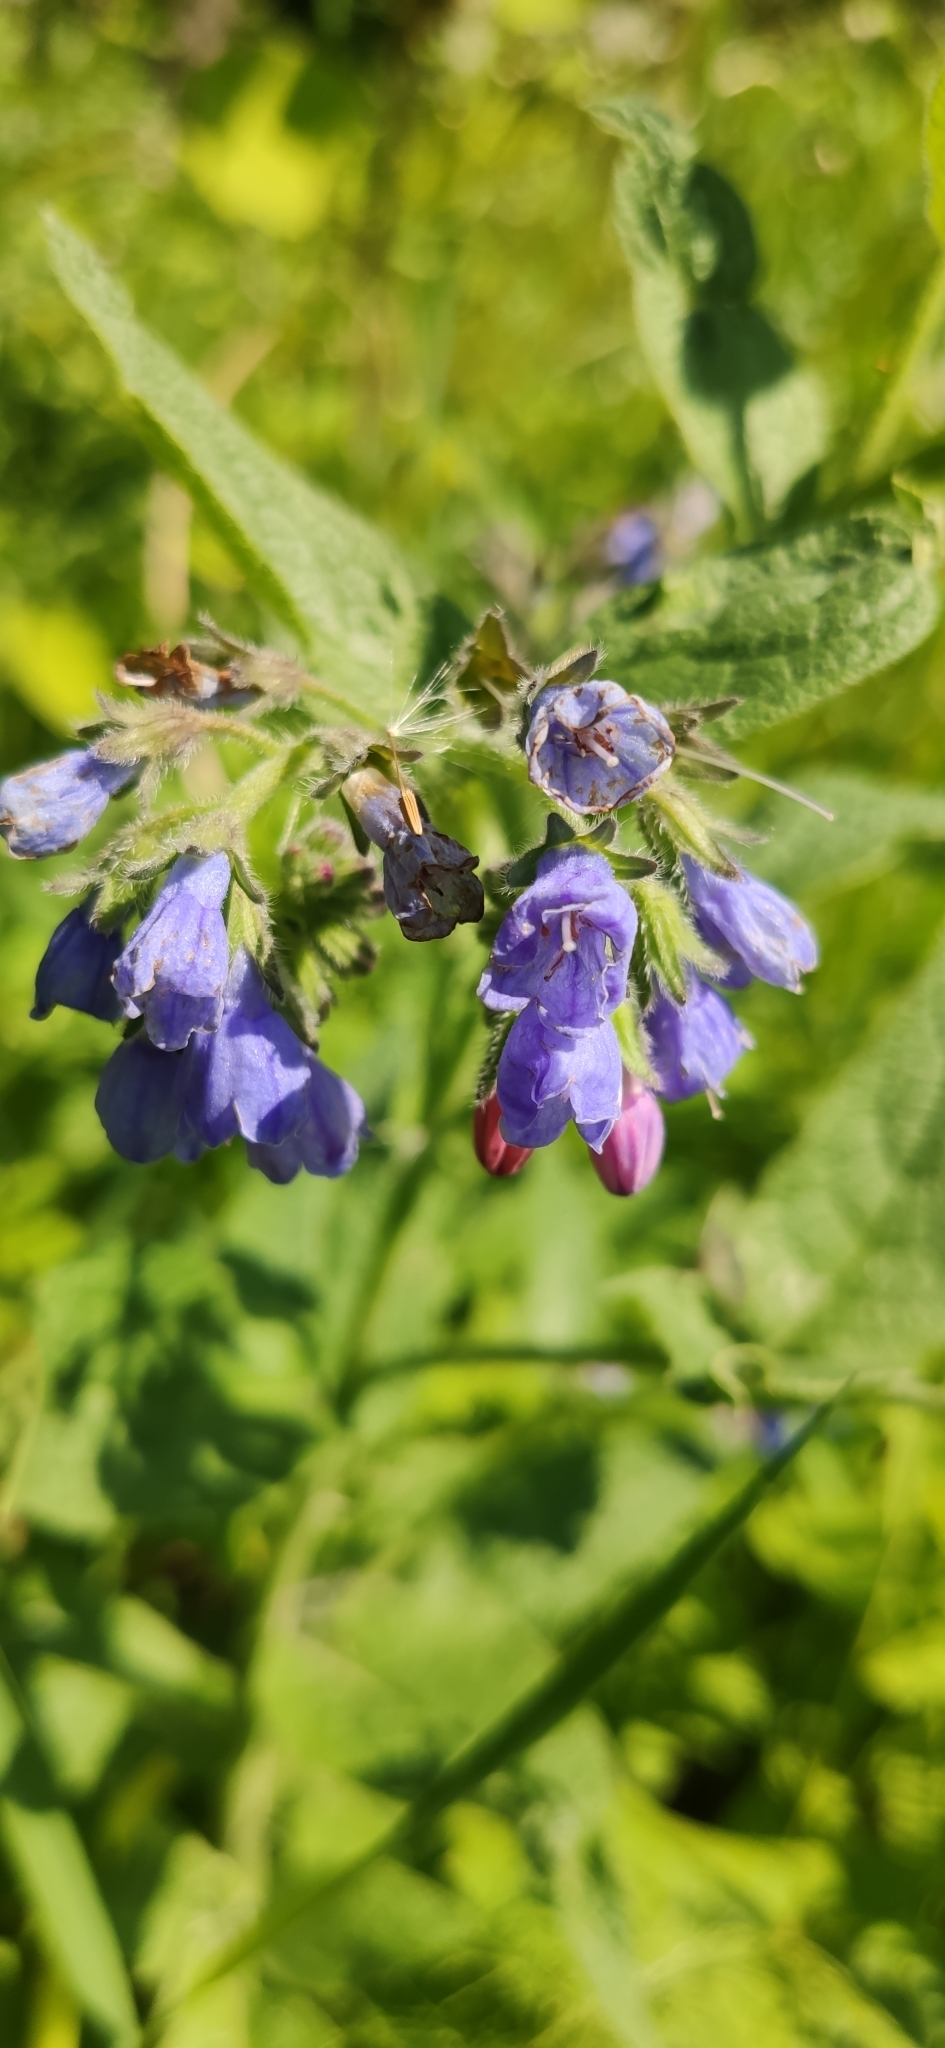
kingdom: Plantae
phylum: Tracheophyta
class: Magnoliopsida
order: Boraginales
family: Boraginaceae
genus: Symphytum
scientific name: Symphytum caucasicum
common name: Caucasian comfrey
